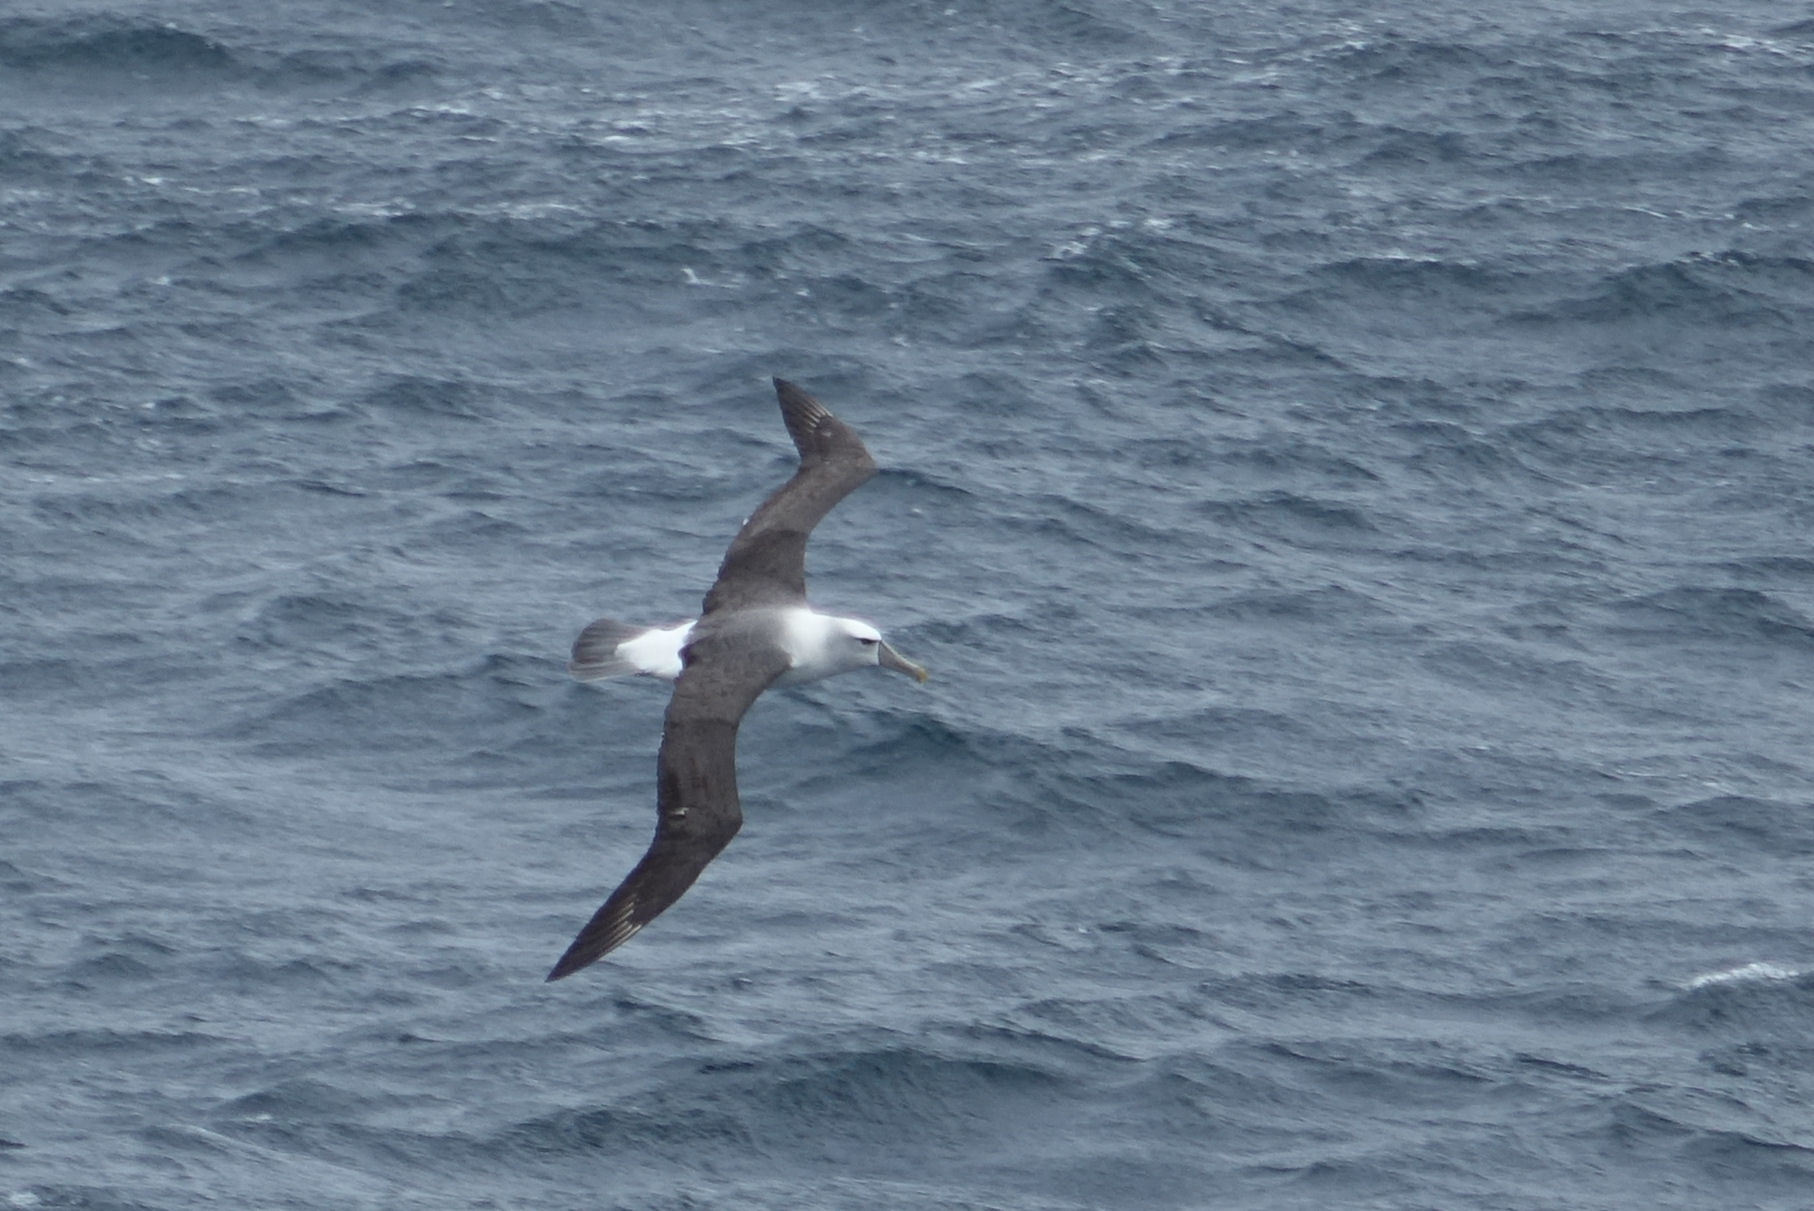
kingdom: Animalia
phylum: Chordata
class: Aves
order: Procellariiformes
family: Diomedeidae
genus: Thalassarche
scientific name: Thalassarche cauta
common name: Shy albatross
